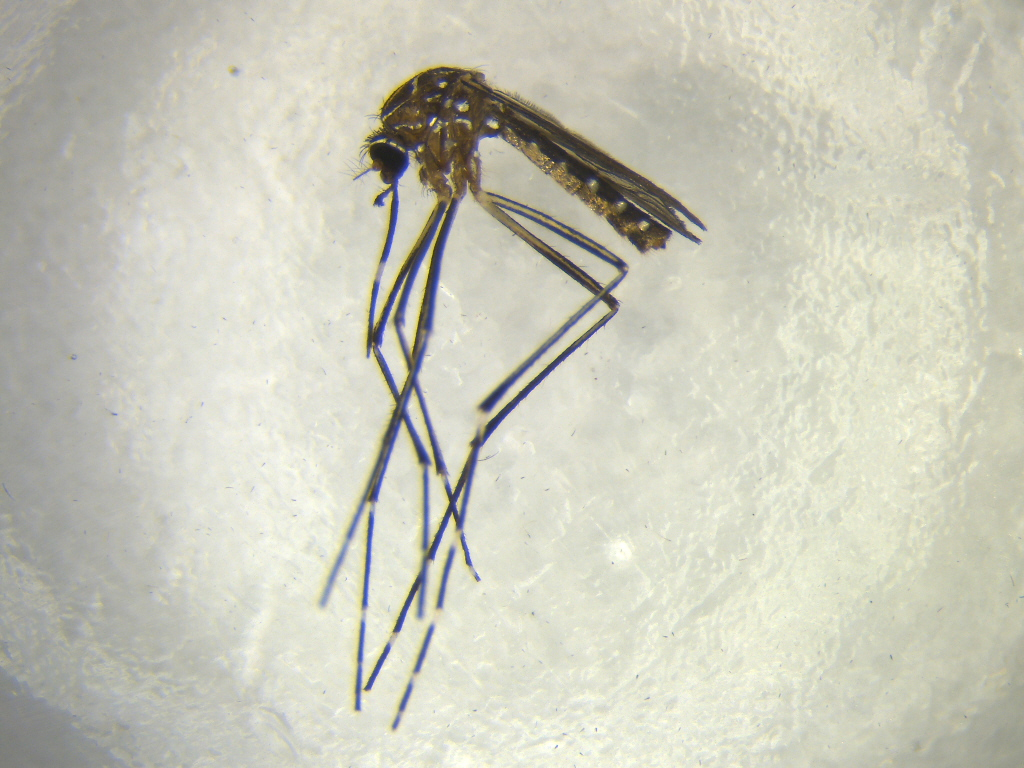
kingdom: Animalia
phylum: Arthropoda
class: Insecta
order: Diptera
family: Culicidae
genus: Aedes
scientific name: Aedes notoscriptus
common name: Australian backyard mosquito
